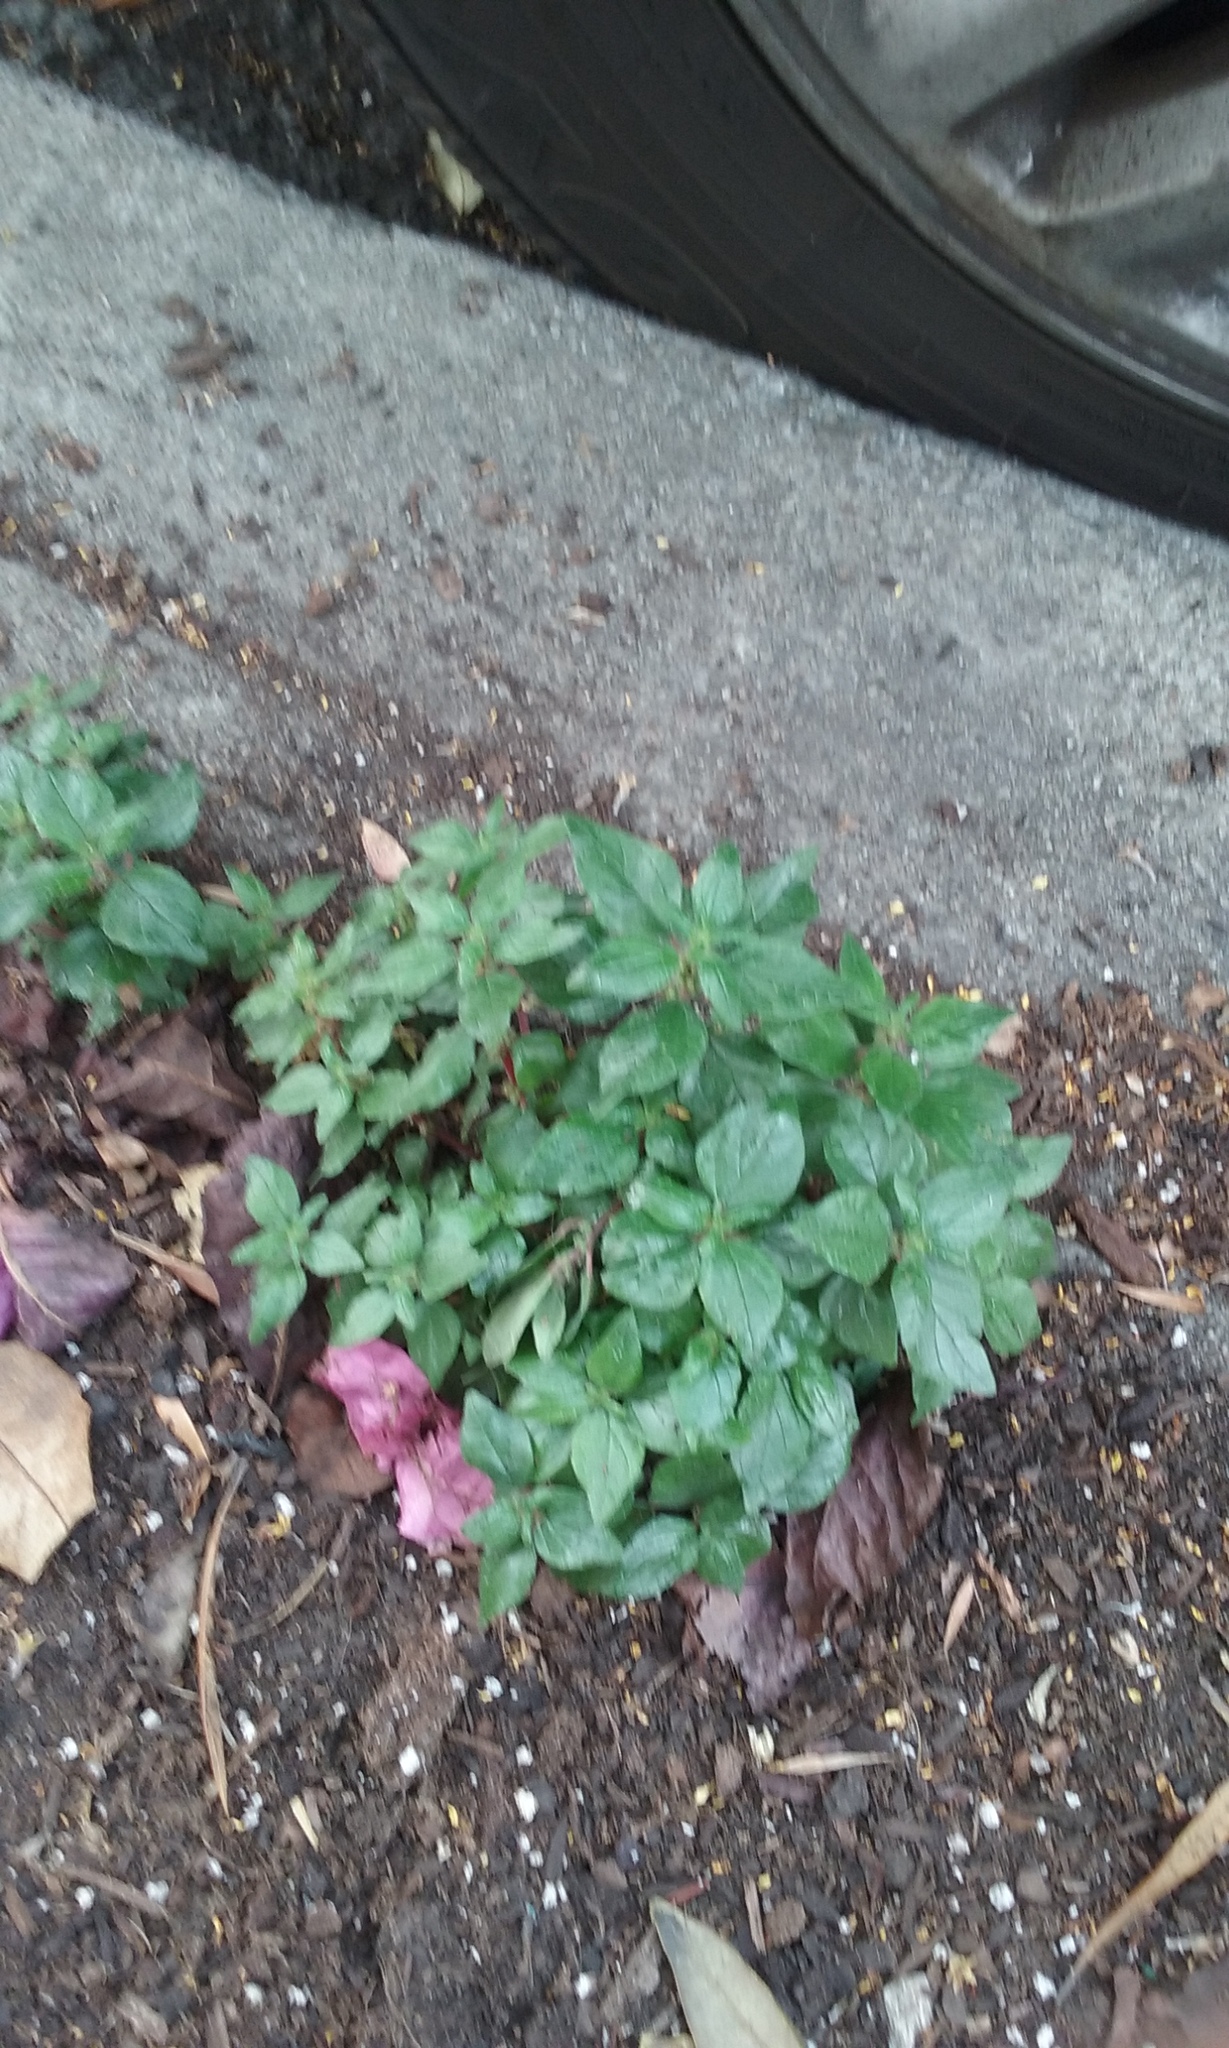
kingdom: Plantae
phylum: Tracheophyta
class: Magnoliopsida
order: Rosales
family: Urticaceae
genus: Parietaria
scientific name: Parietaria judaica
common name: Pellitory-of-the-wall
